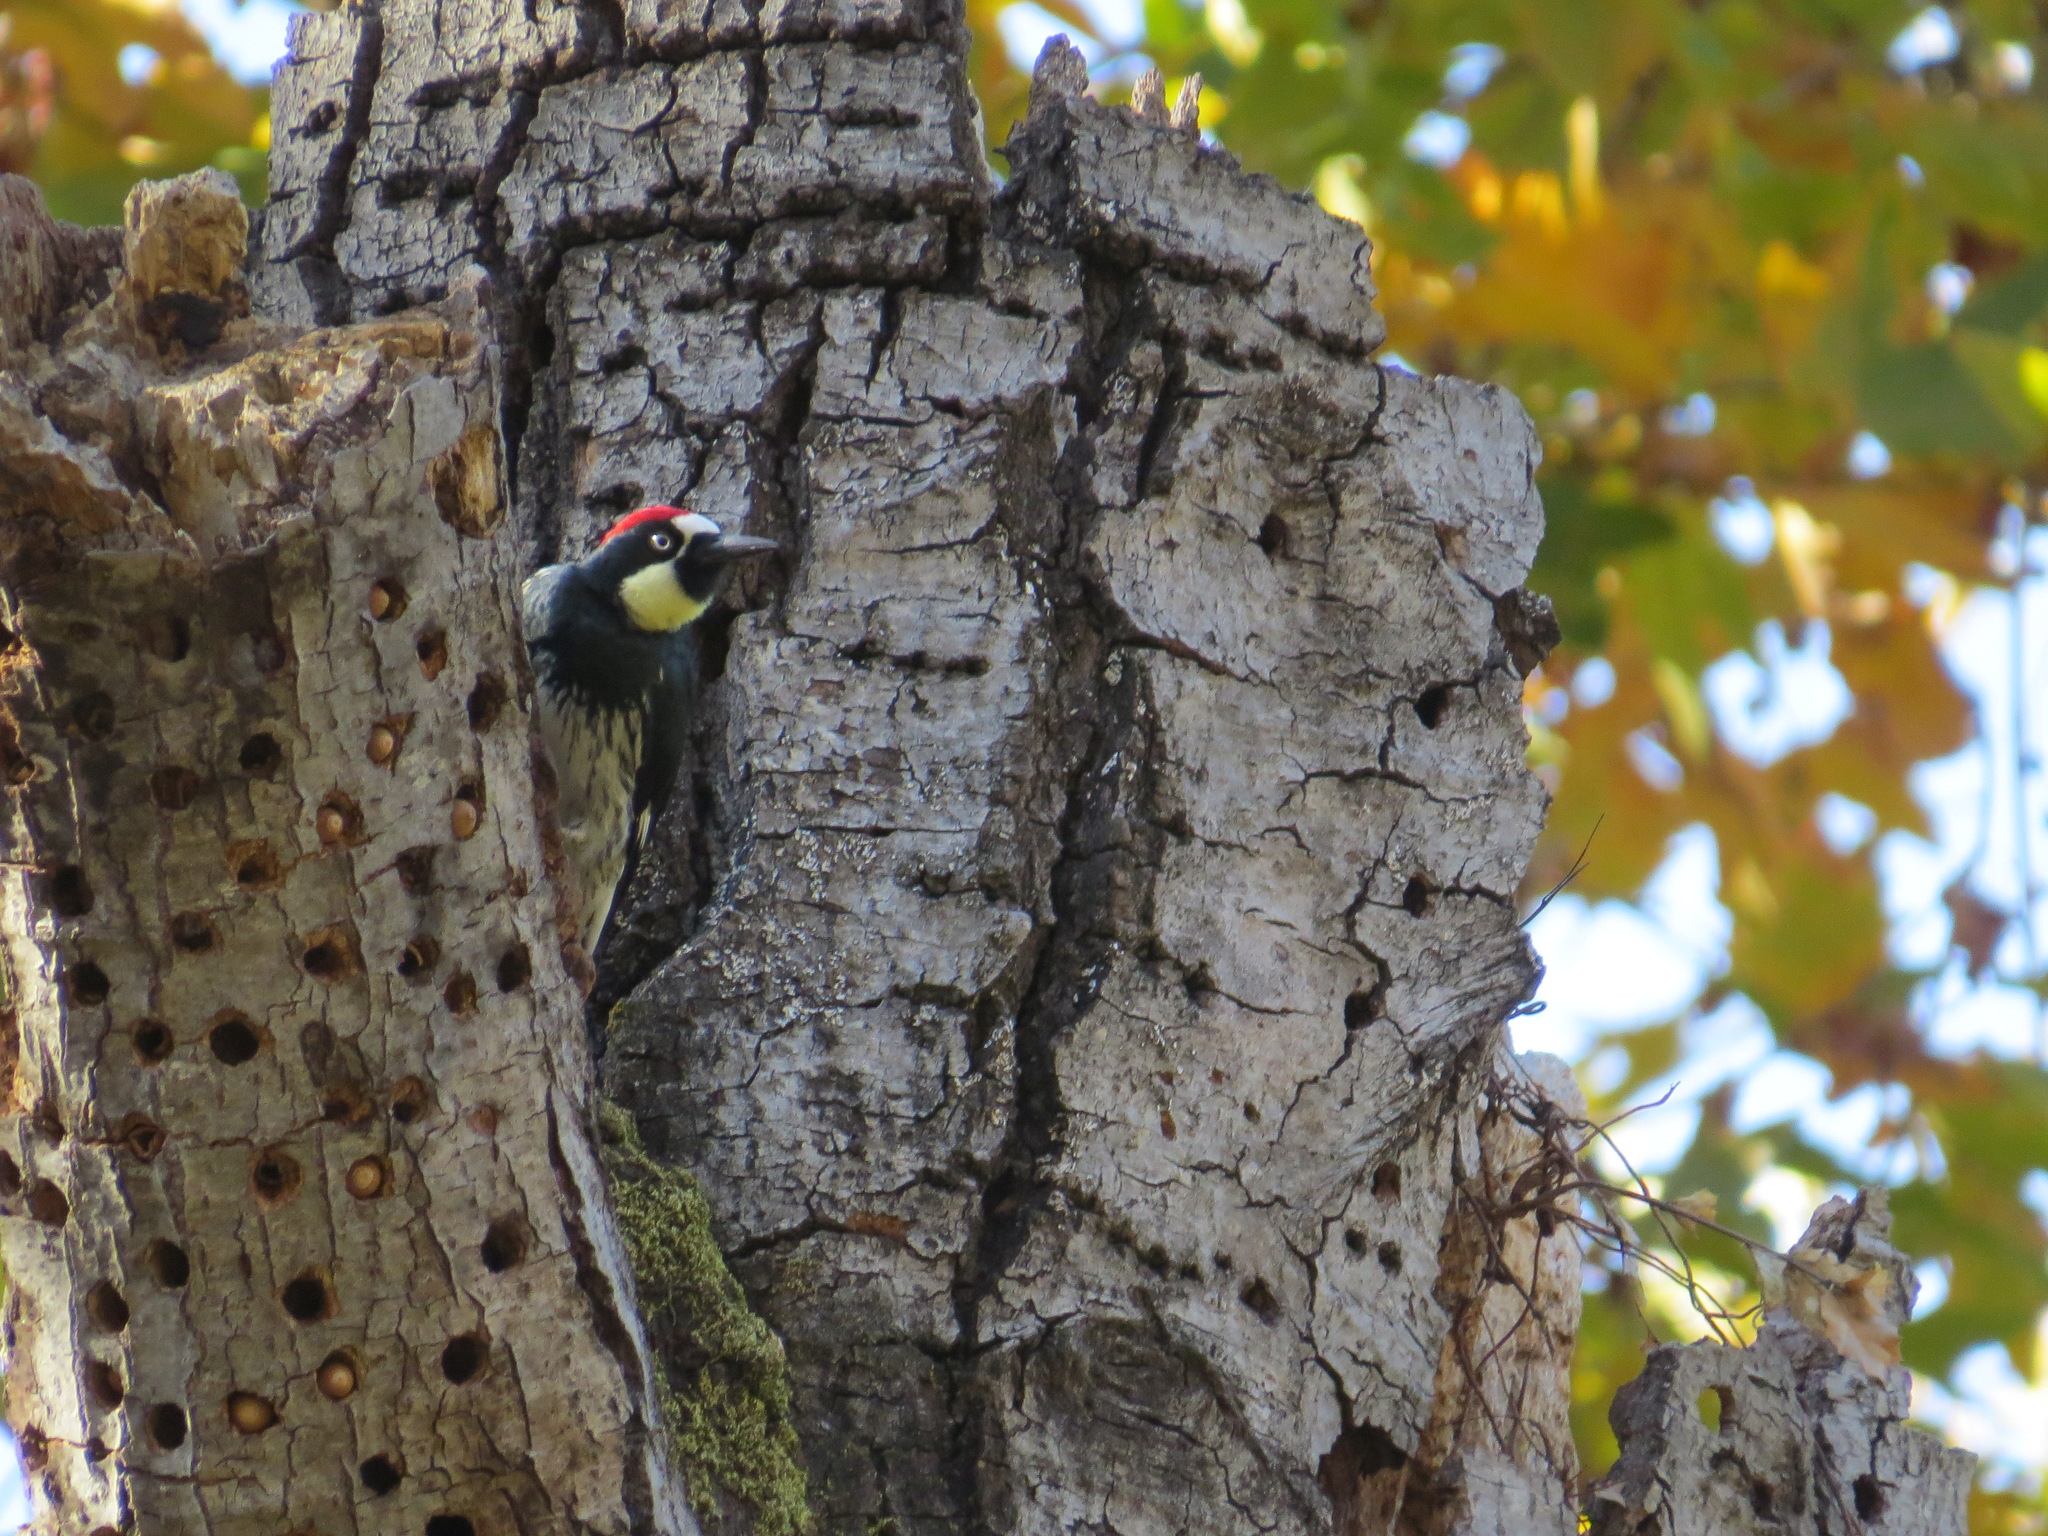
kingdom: Animalia
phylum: Chordata
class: Aves
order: Piciformes
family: Picidae
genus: Melanerpes
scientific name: Melanerpes formicivorus
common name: Acorn woodpecker
